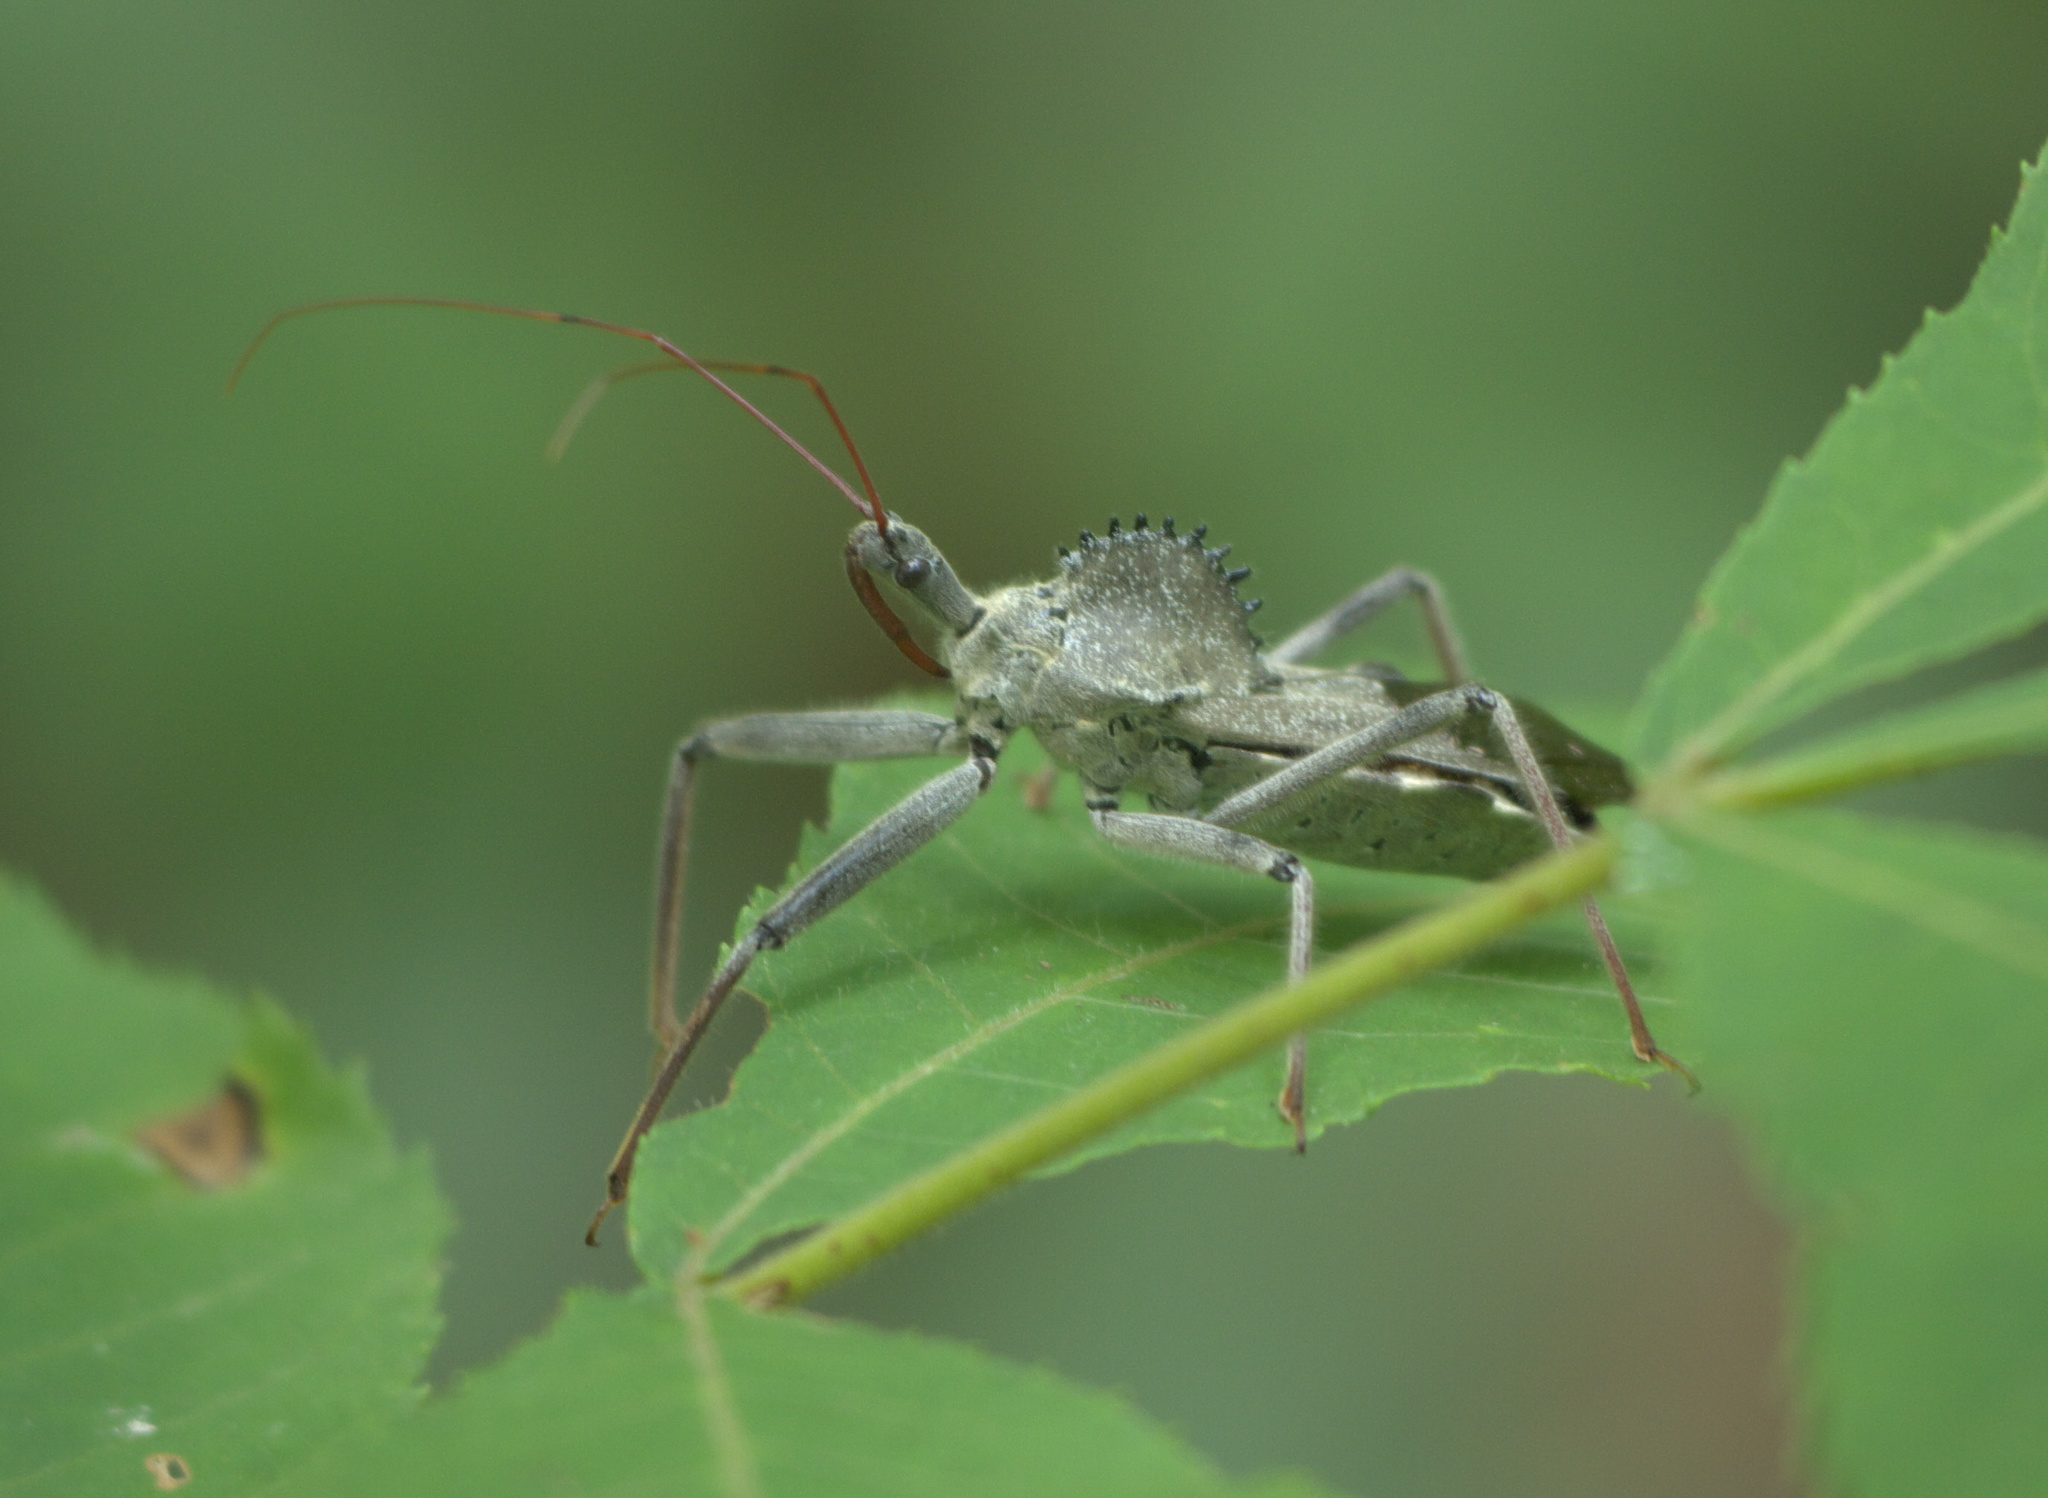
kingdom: Animalia
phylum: Arthropoda
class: Insecta
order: Hemiptera
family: Reduviidae
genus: Arilus
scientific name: Arilus cristatus
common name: North american wheel bug
